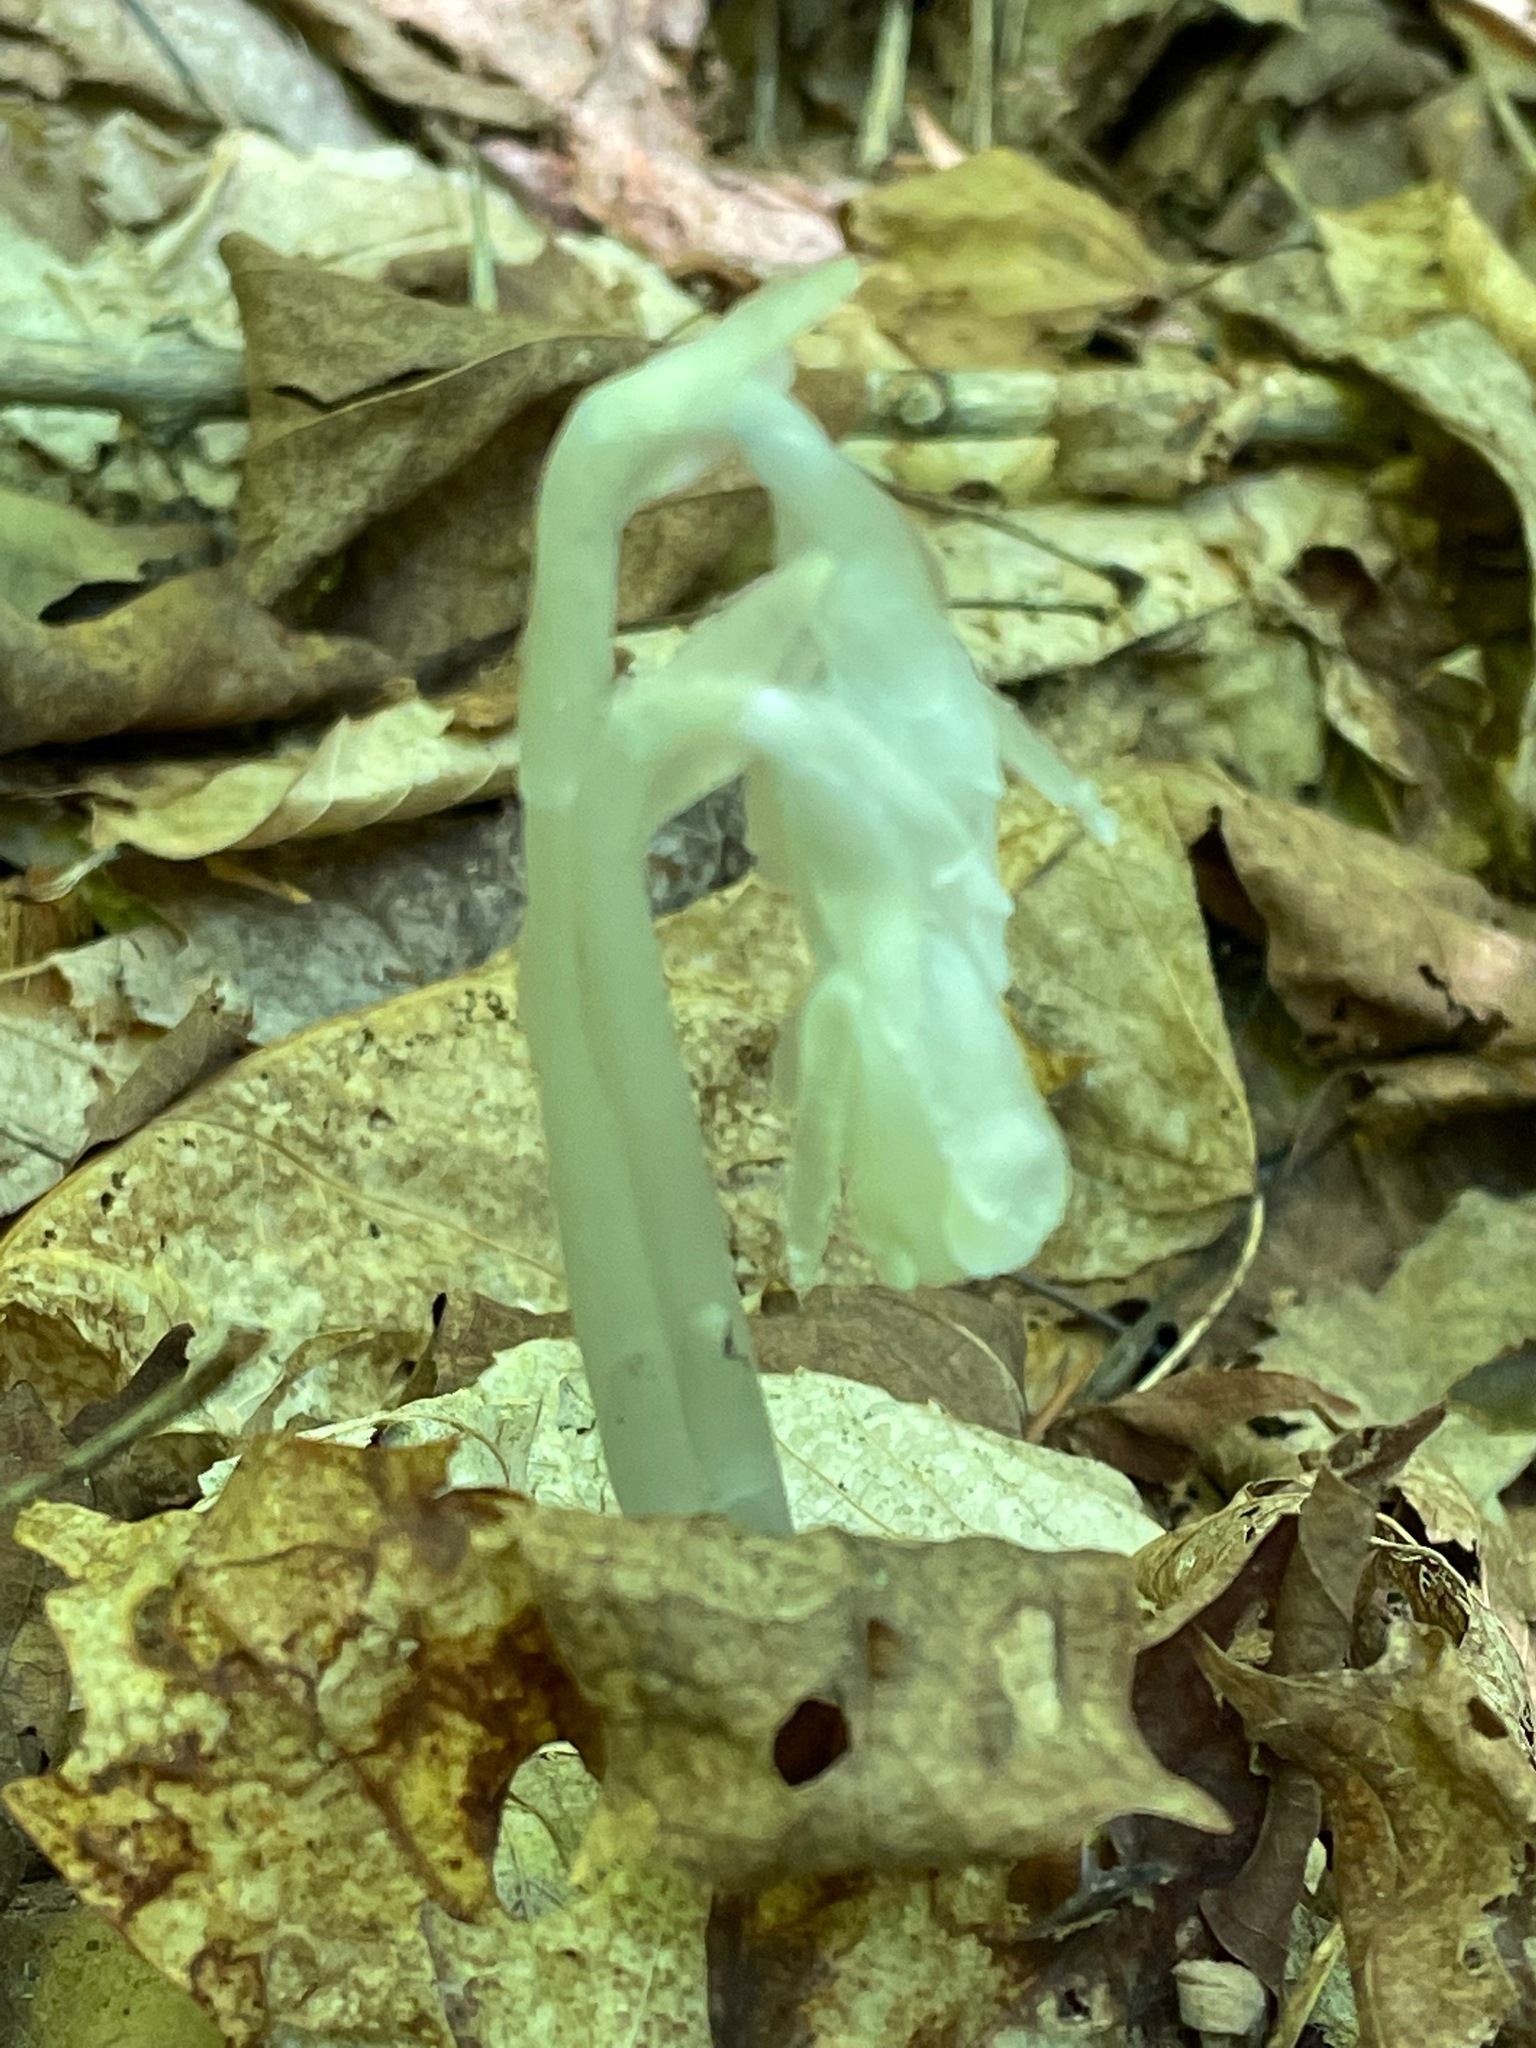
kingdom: Plantae
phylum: Tracheophyta
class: Magnoliopsida
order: Ericales
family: Ericaceae
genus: Monotropa
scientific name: Monotropa uniflora
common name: Convulsion root
